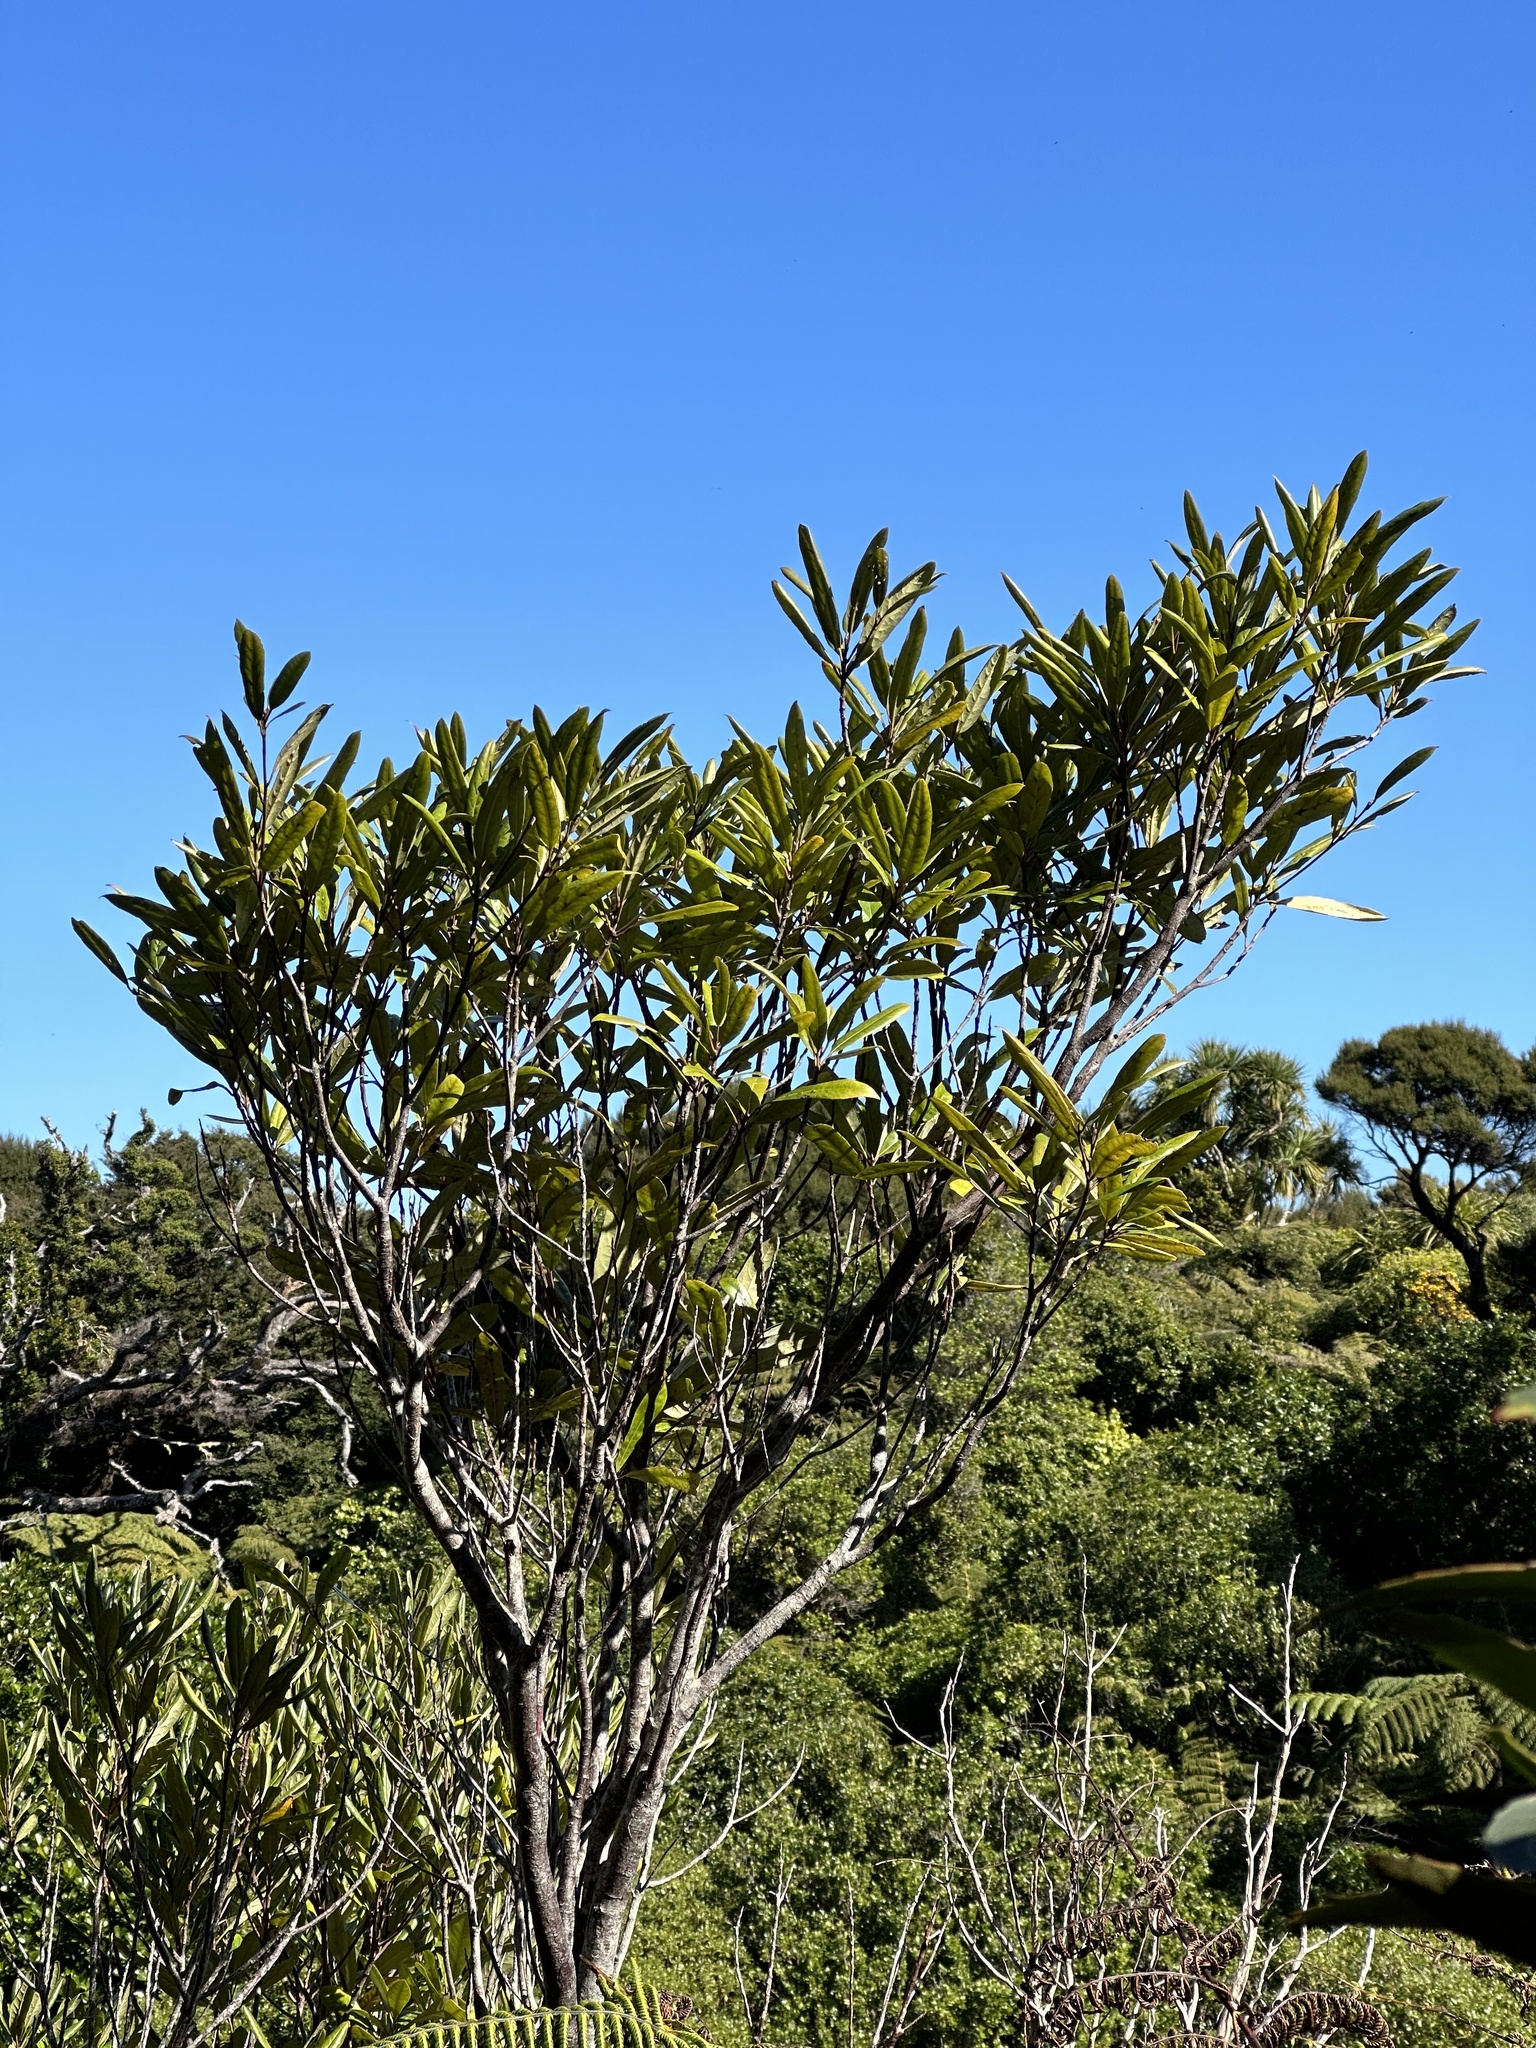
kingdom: Plantae
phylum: Tracheophyta
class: Magnoliopsida
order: Oxalidales
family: Elaeocarpaceae
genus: Elaeocarpus
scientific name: Elaeocarpus dentatus
